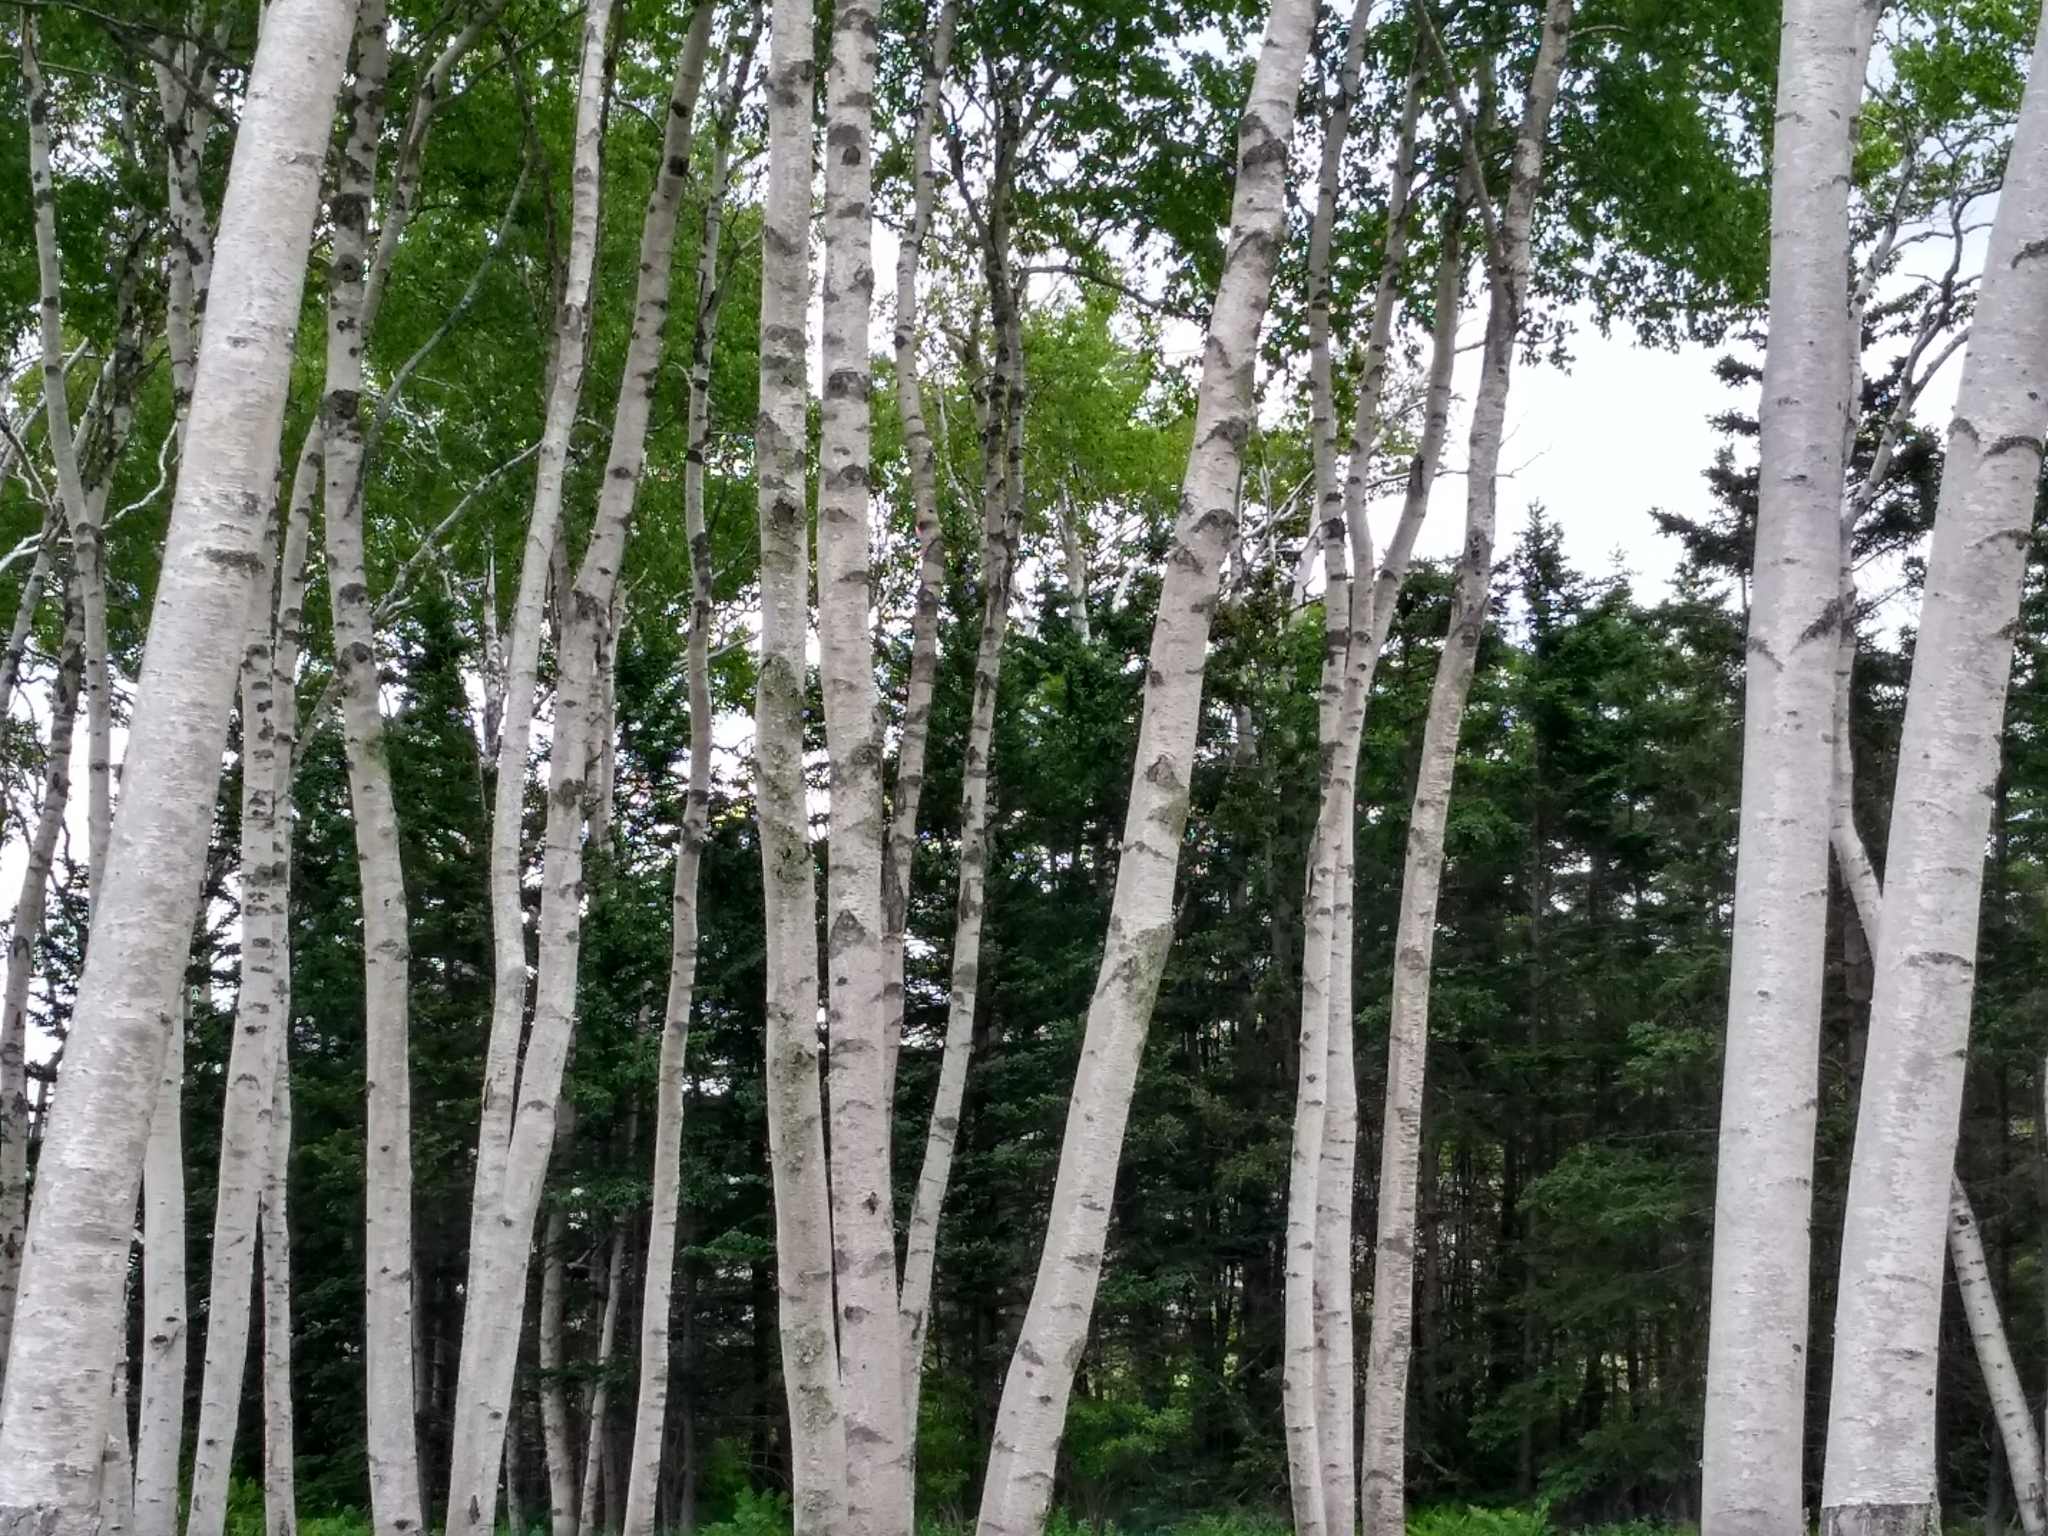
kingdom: Plantae
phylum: Tracheophyta
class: Magnoliopsida
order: Fagales
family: Betulaceae
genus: Betula
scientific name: Betula papyrifera
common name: Paper birch
